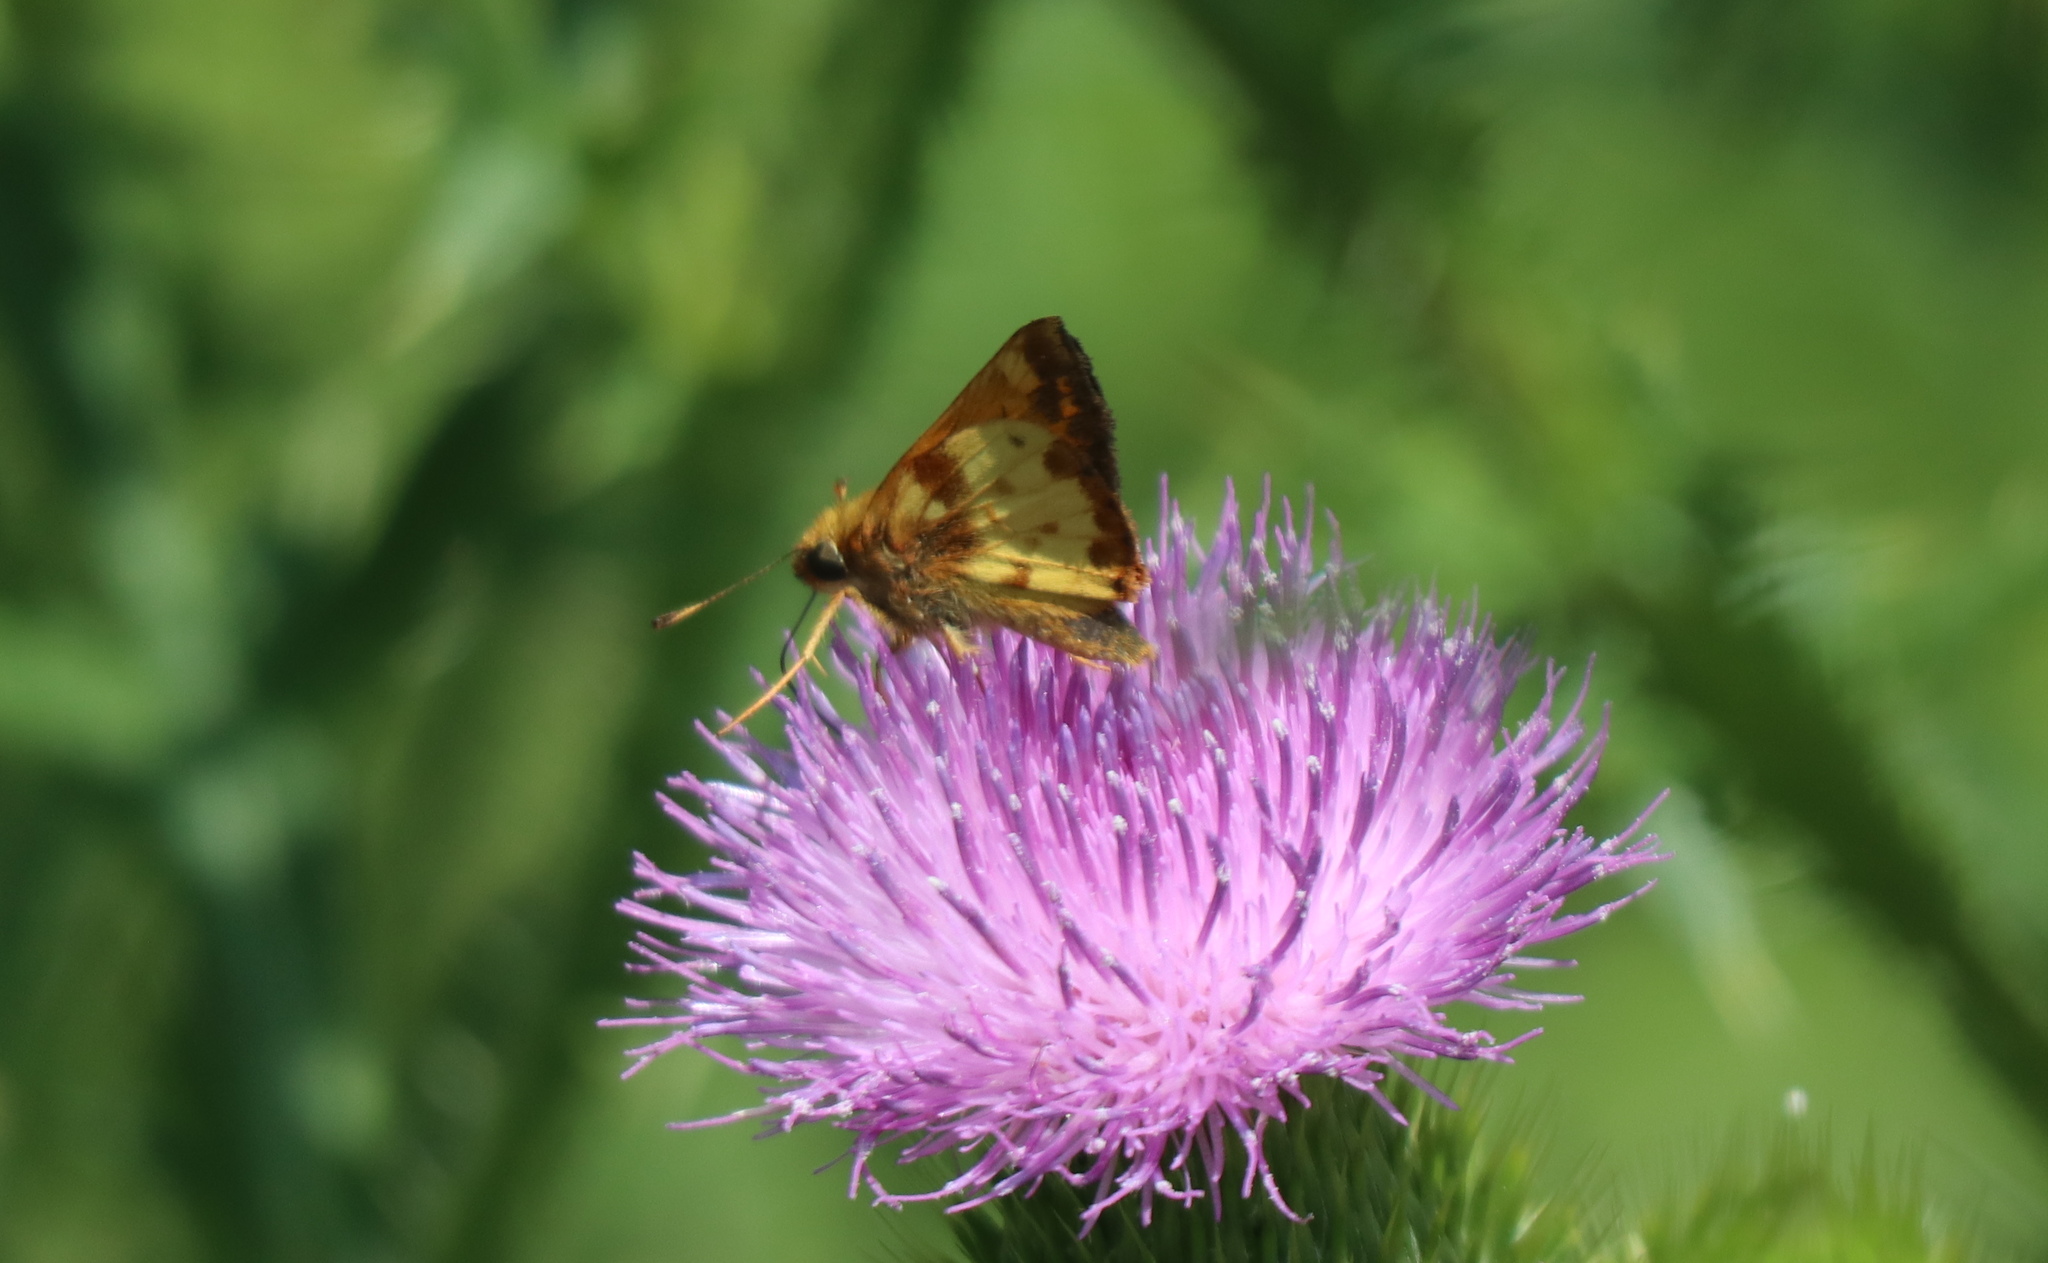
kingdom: Animalia
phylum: Arthropoda
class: Insecta
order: Lepidoptera
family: Hesperiidae
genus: Lon
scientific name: Lon zabulon
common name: Zabulon skipper
